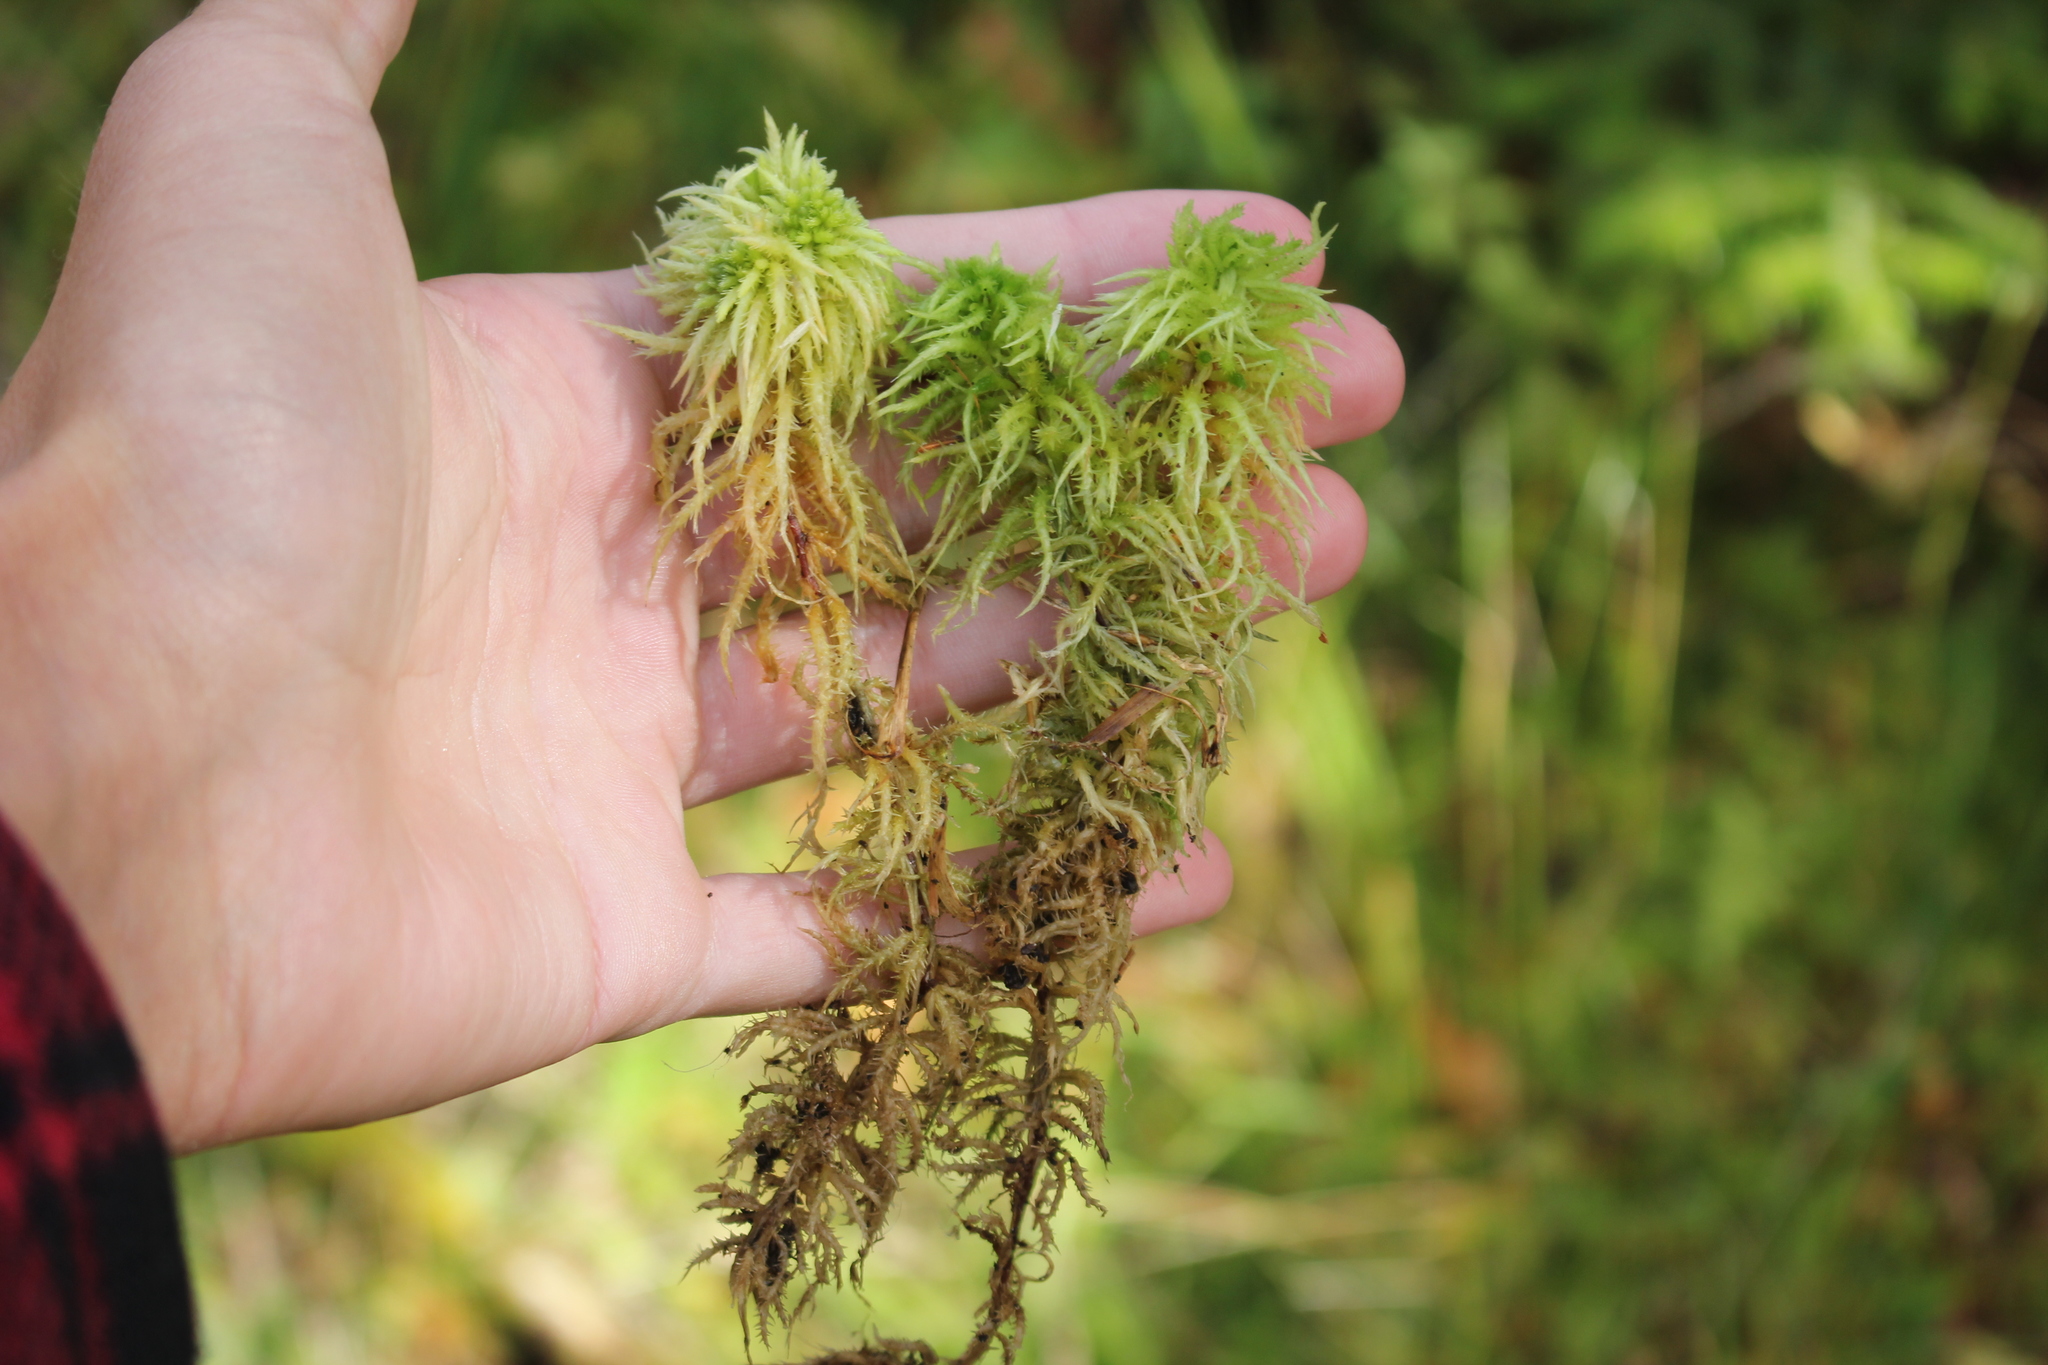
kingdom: Plantae
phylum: Bryophyta
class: Sphagnopsida
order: Sphagnales
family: Sphagnaceae
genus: Sphagnum
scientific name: Sphagnum squarrosum
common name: Shaggy peat moss
